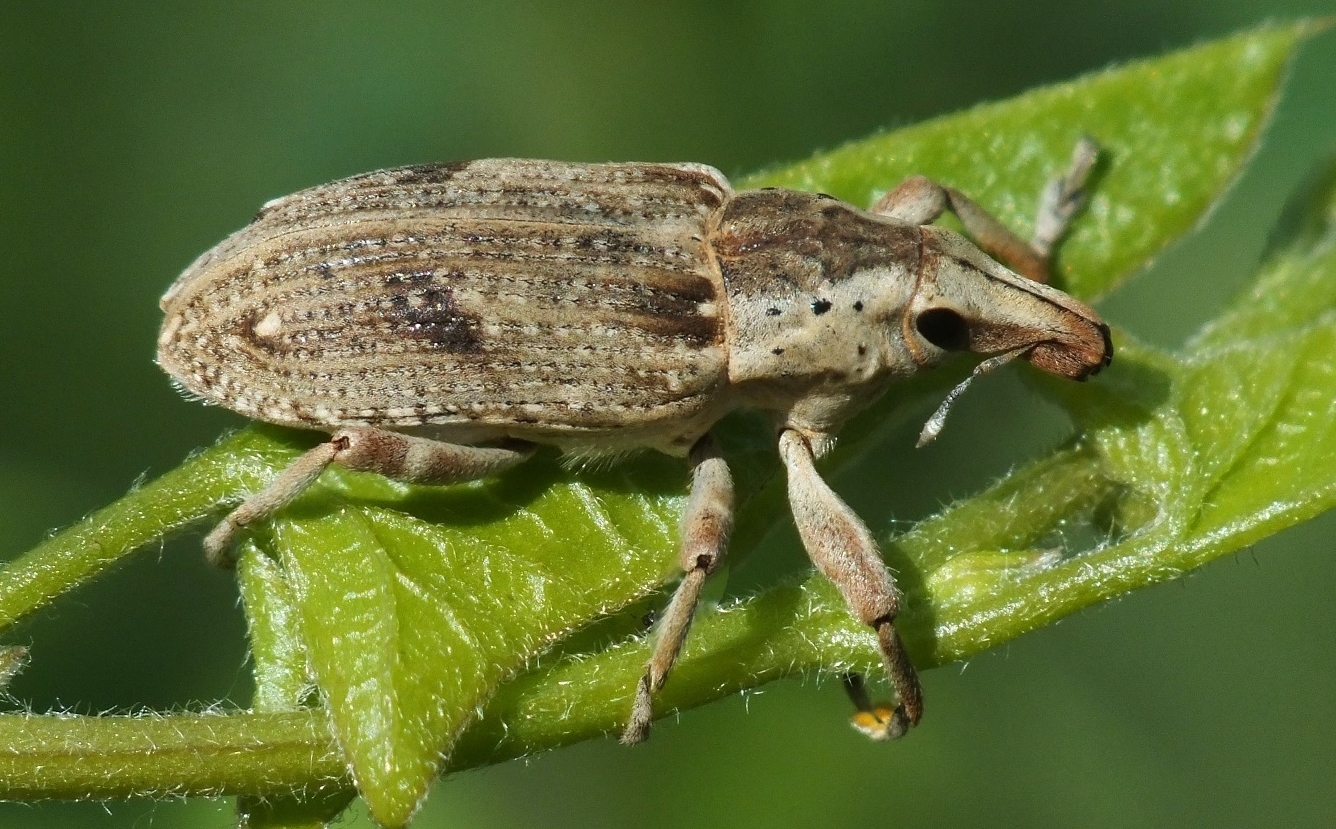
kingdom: Animalia
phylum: Arthropoda
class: Insecta
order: Coleoptera
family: Curculionidae
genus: Cleonis
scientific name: Cleonis carinata
